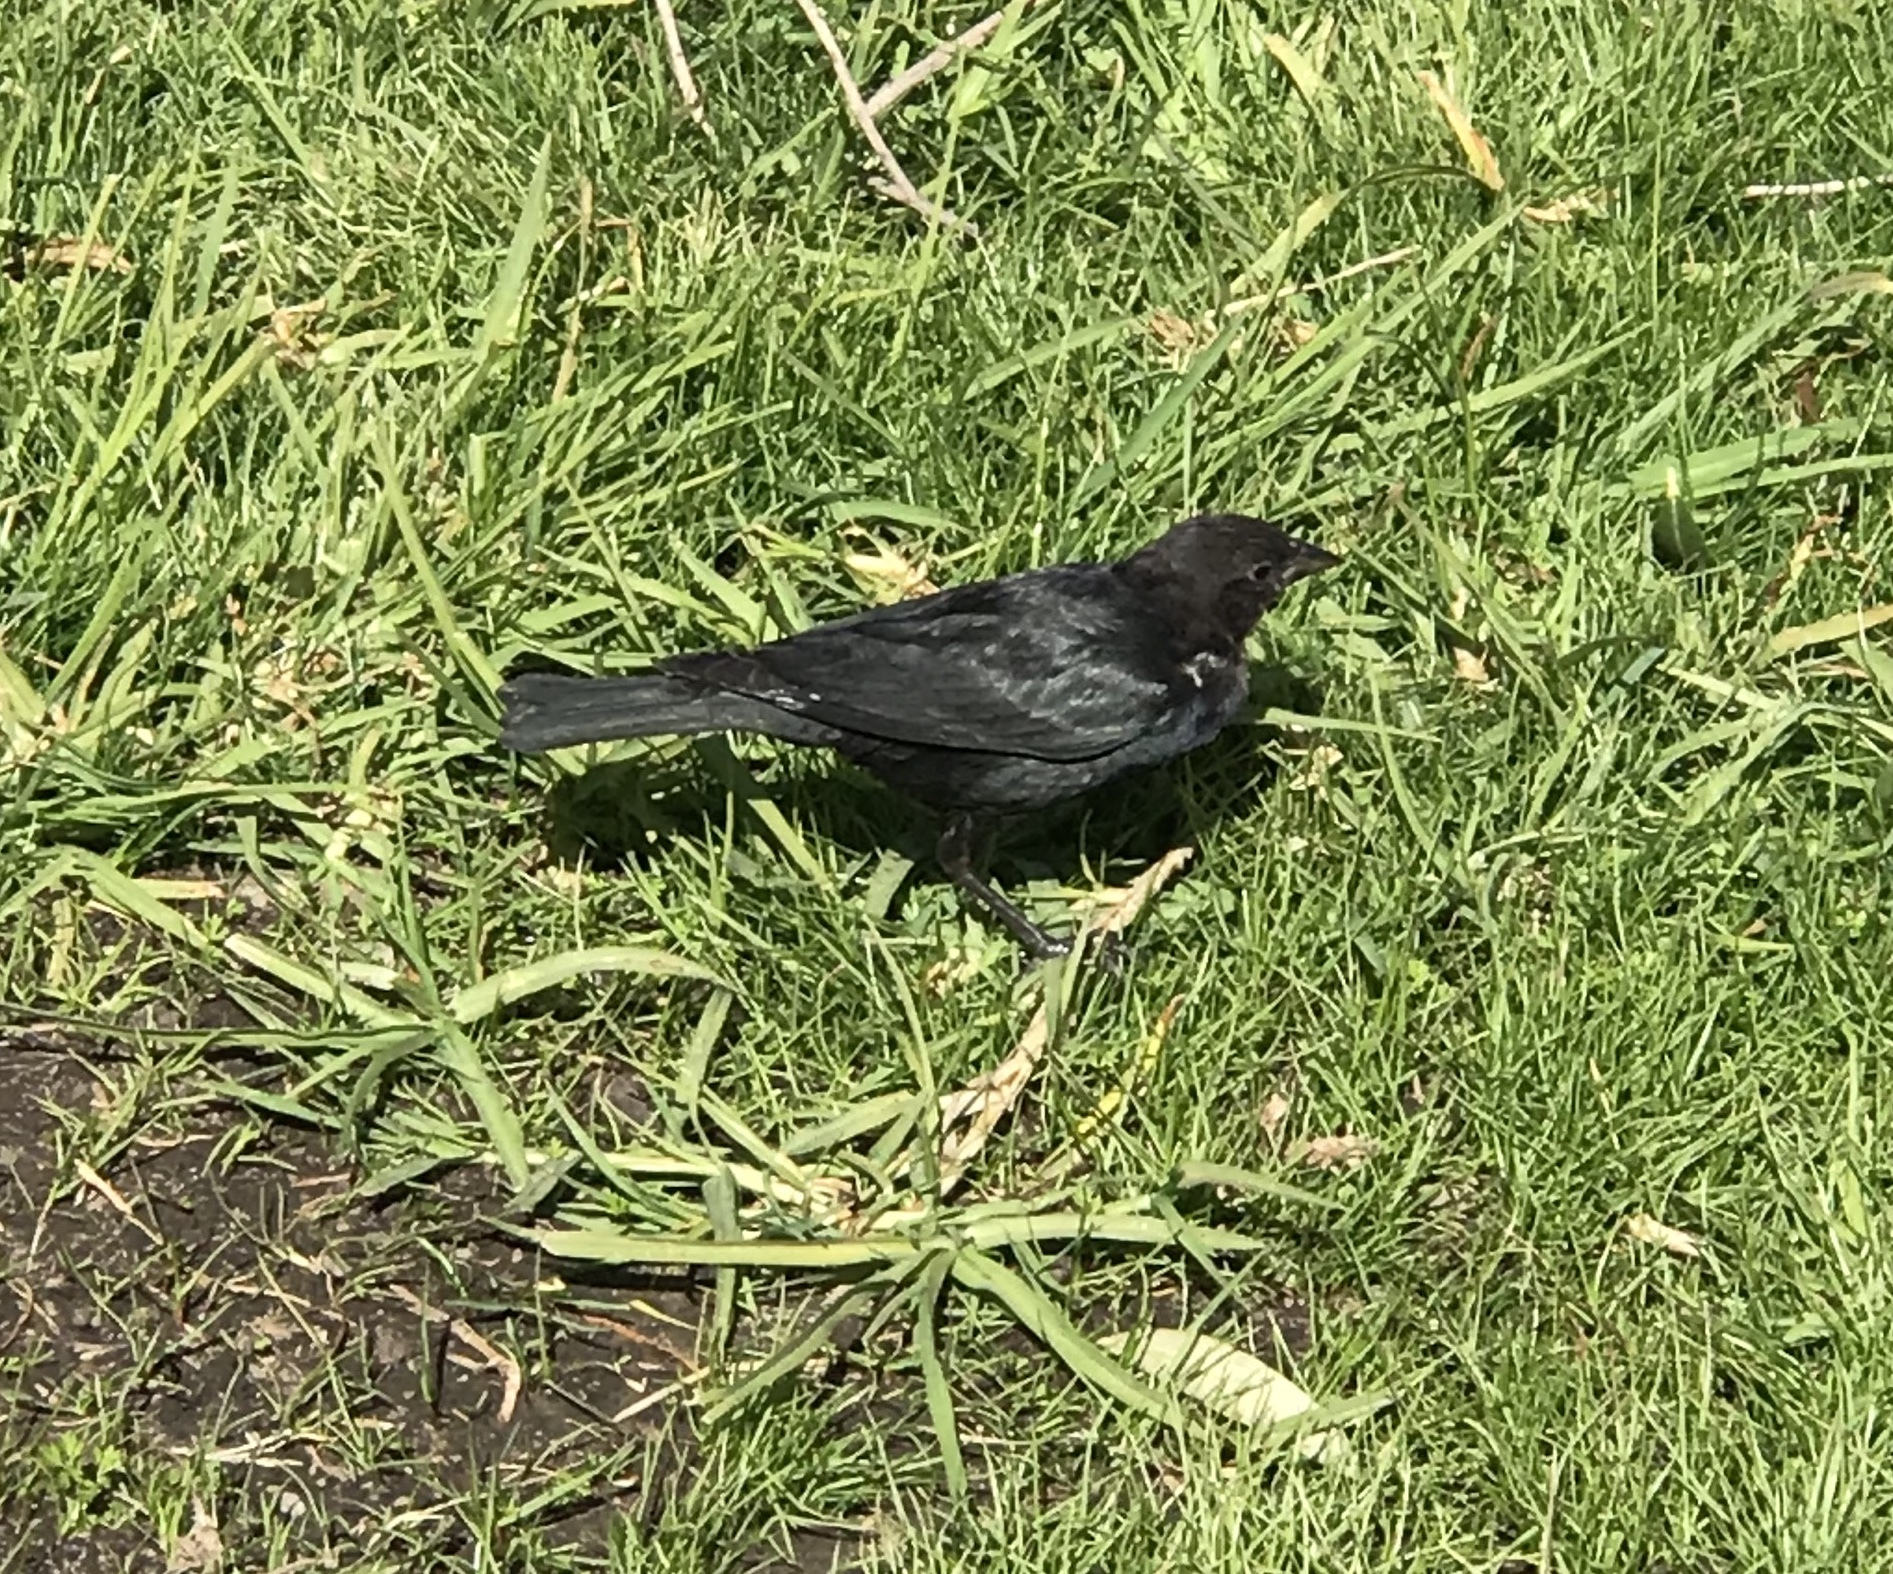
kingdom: Animalia
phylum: Chordata
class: Aves
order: Passeriformes
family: Icteridae
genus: Molothrus
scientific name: Molothrus ater
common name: Brown-headed cowbird
